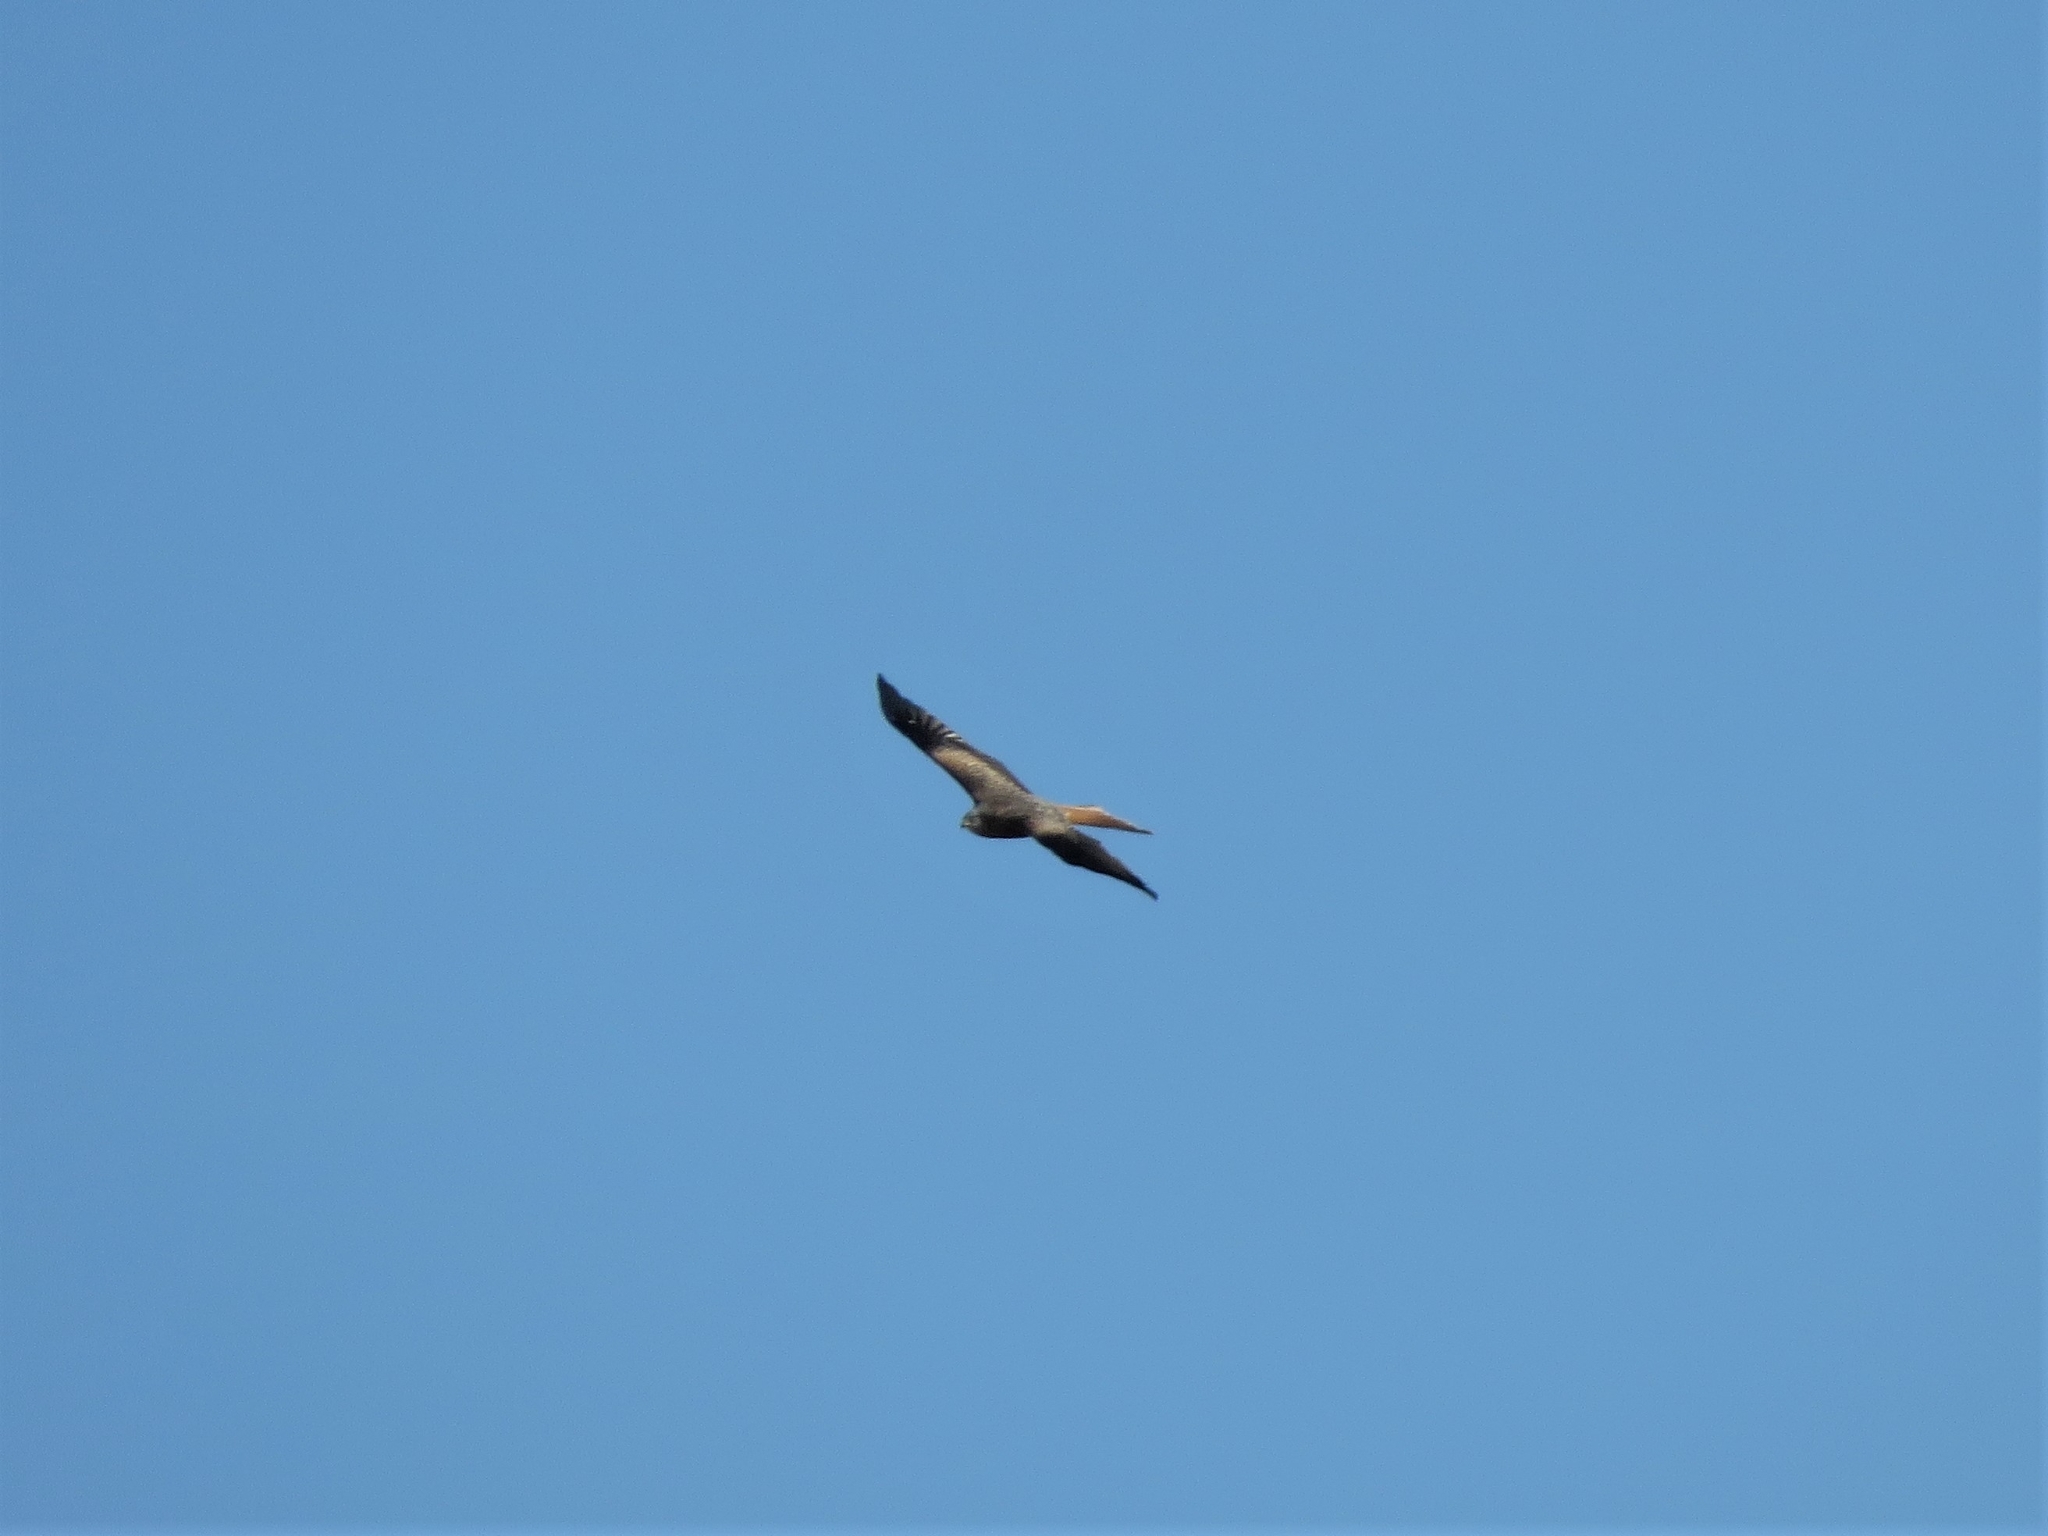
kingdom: Animalia
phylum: Chordata
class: Aves
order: Accipitriformes
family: Accipitridae
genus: Milvus
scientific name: Milvus milvus
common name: Red kite
